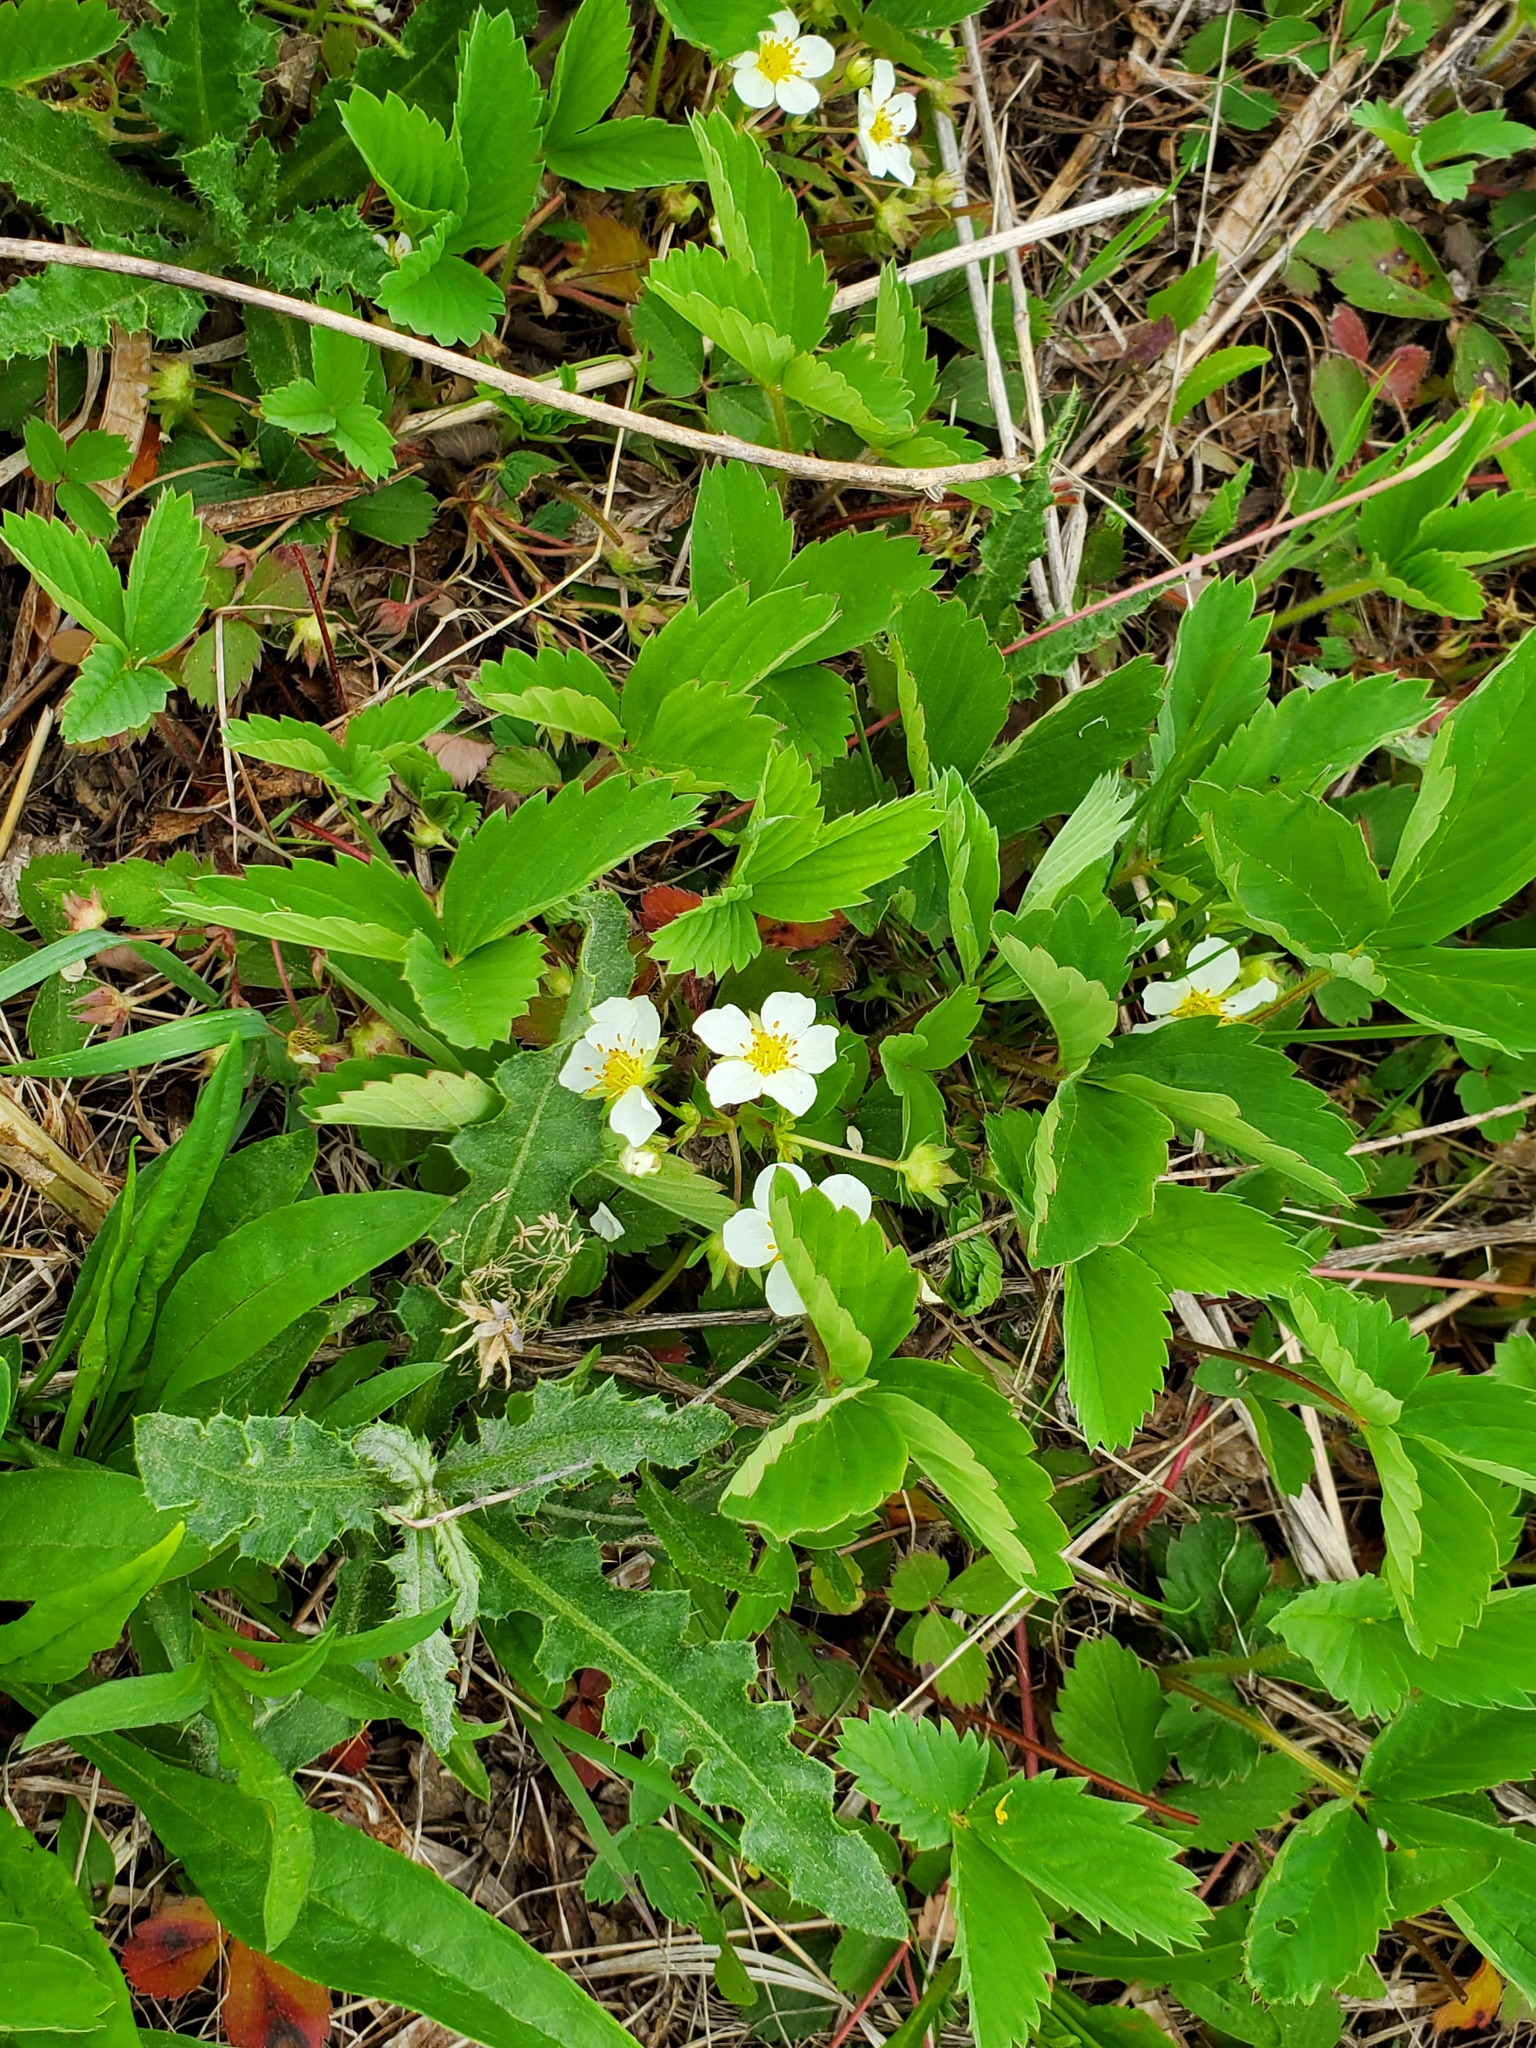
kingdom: Plantae
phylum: Tracheophyta
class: Magnoliopsida
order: Rosales
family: Rosaceae
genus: Fragaria
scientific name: Fragaria virginiana
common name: Thickleaved wild strawberry
